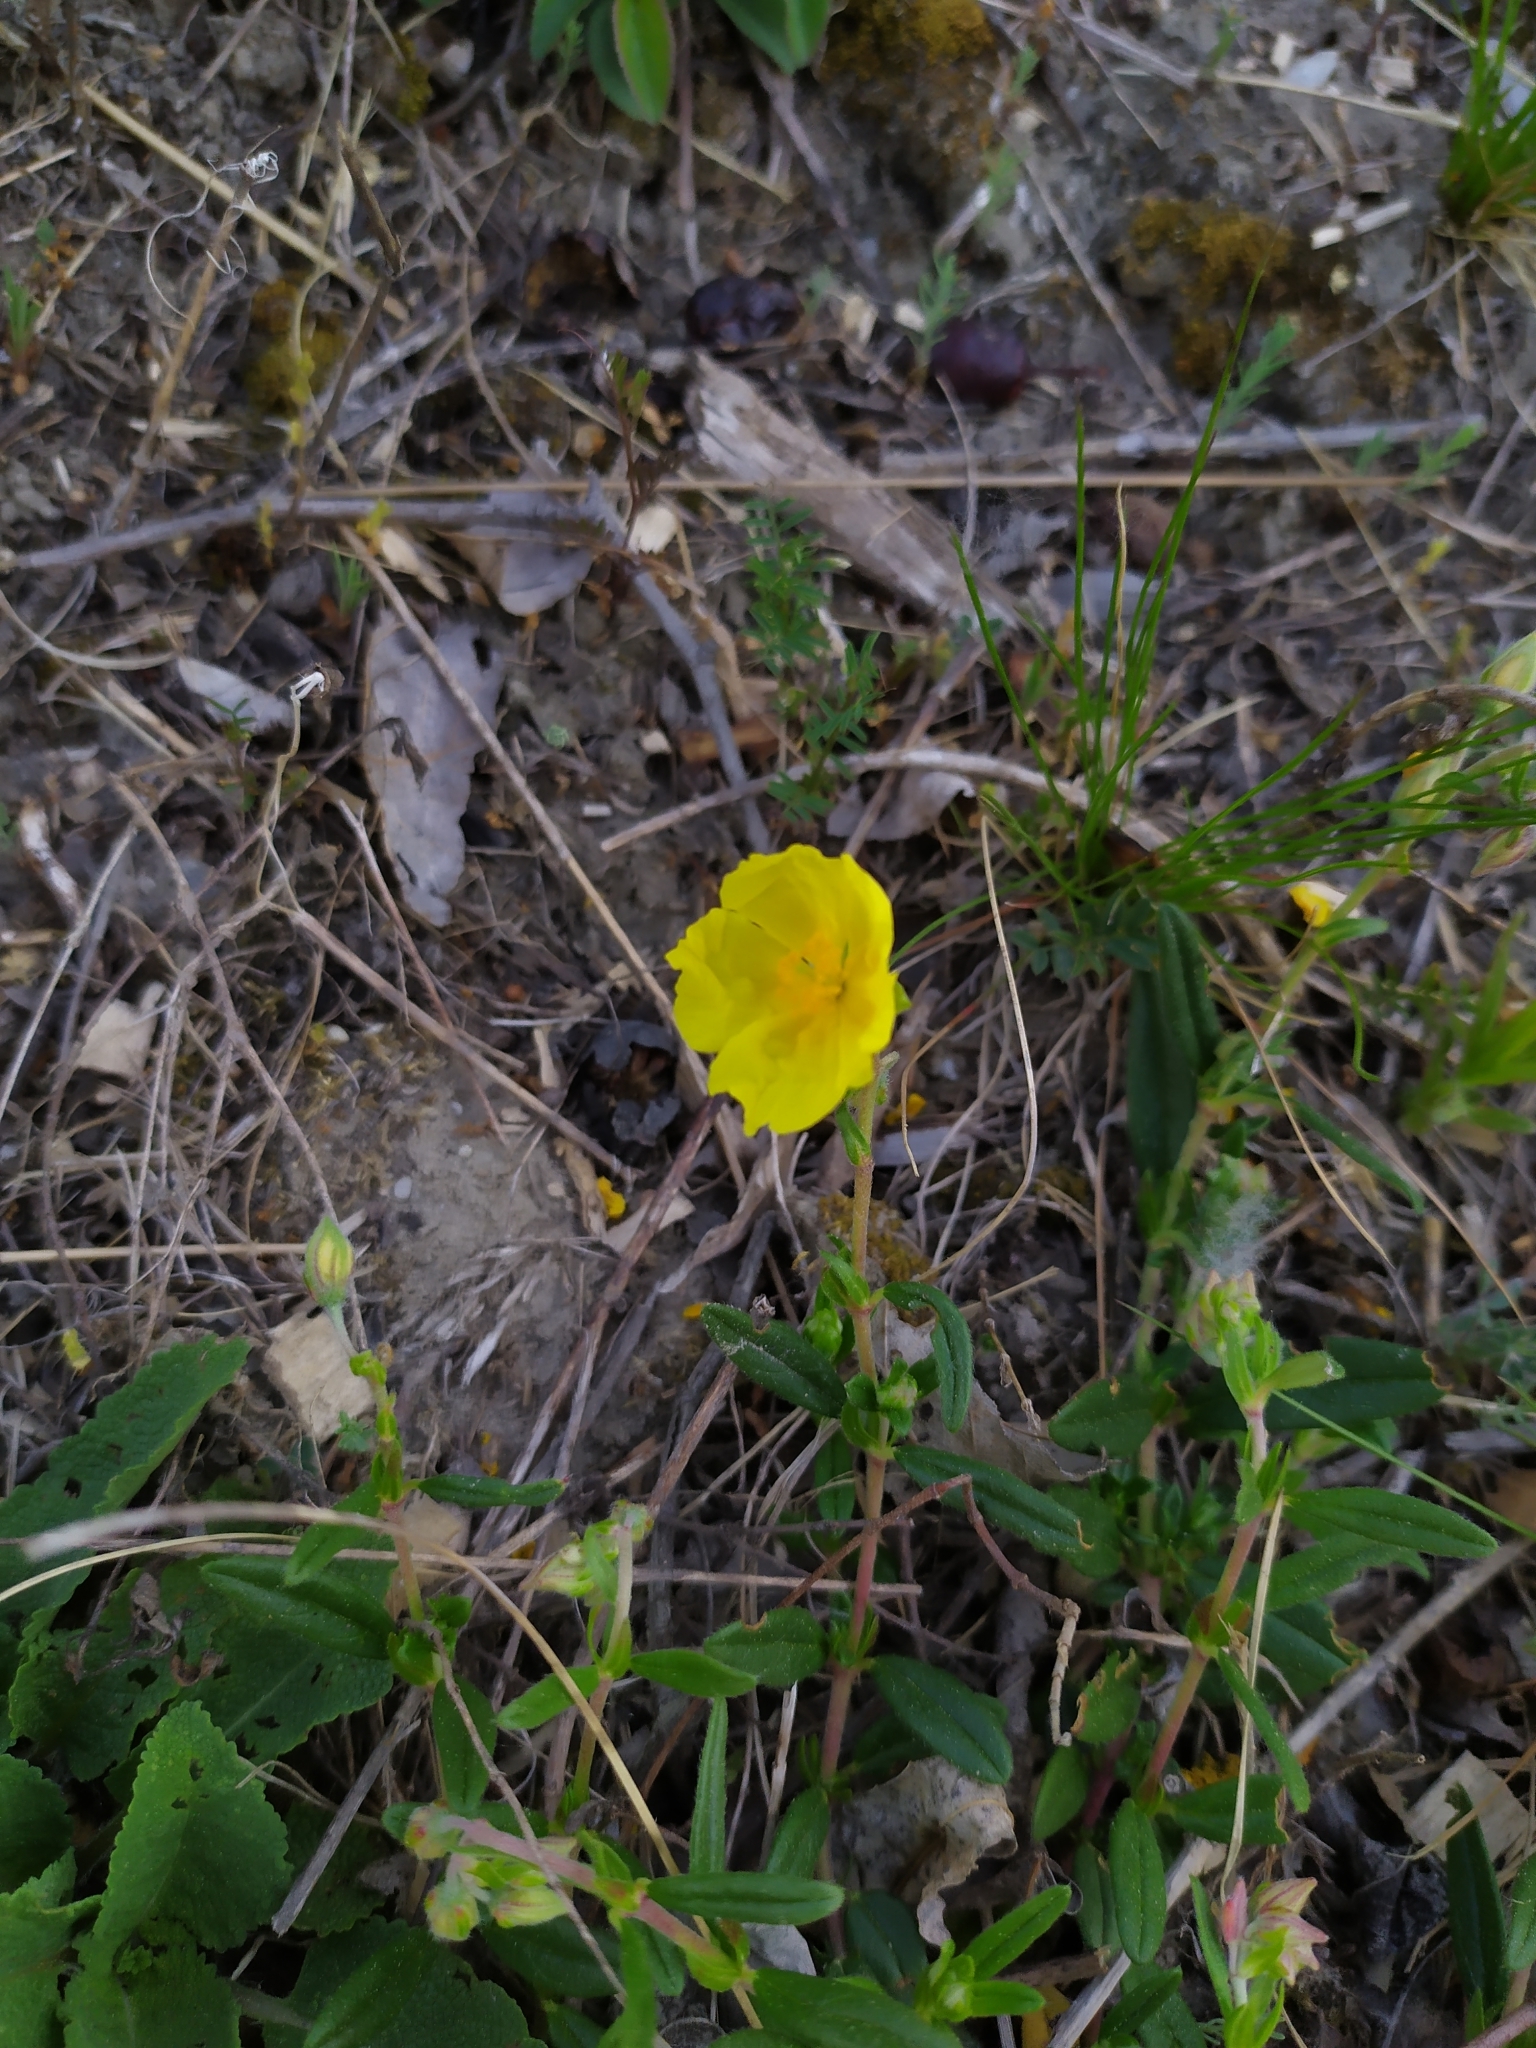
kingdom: Plantae
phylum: Tracheophyta
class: Magnoliopsida
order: Malvales
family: Cistaceae
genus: Helianthemum
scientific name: Helianthemum nummularium
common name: Common rock-rose
